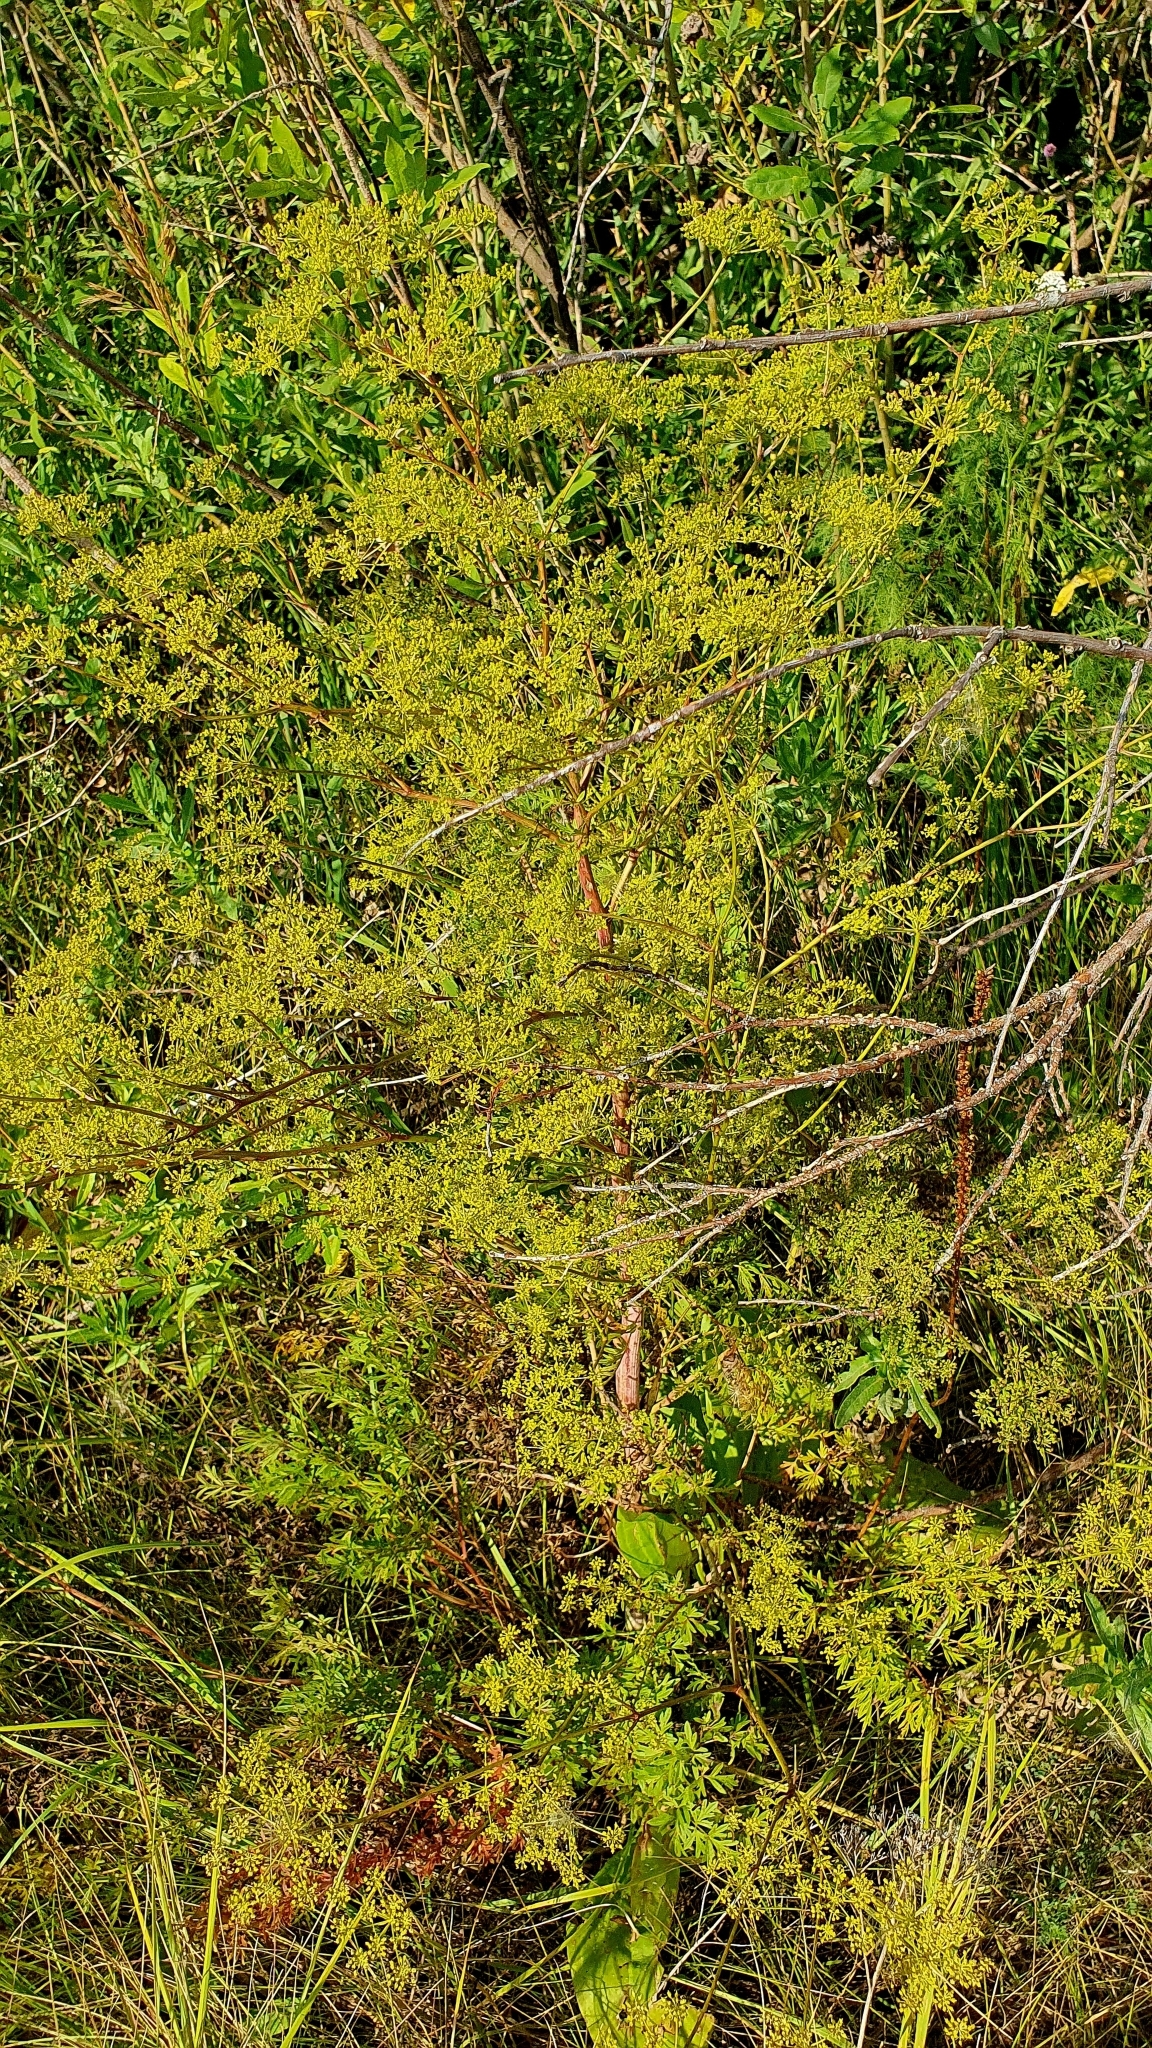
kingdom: Plantae
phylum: Tracheophyta
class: Magnoliopsida
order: Apiales
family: Apiaceae
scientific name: Apiaceae
